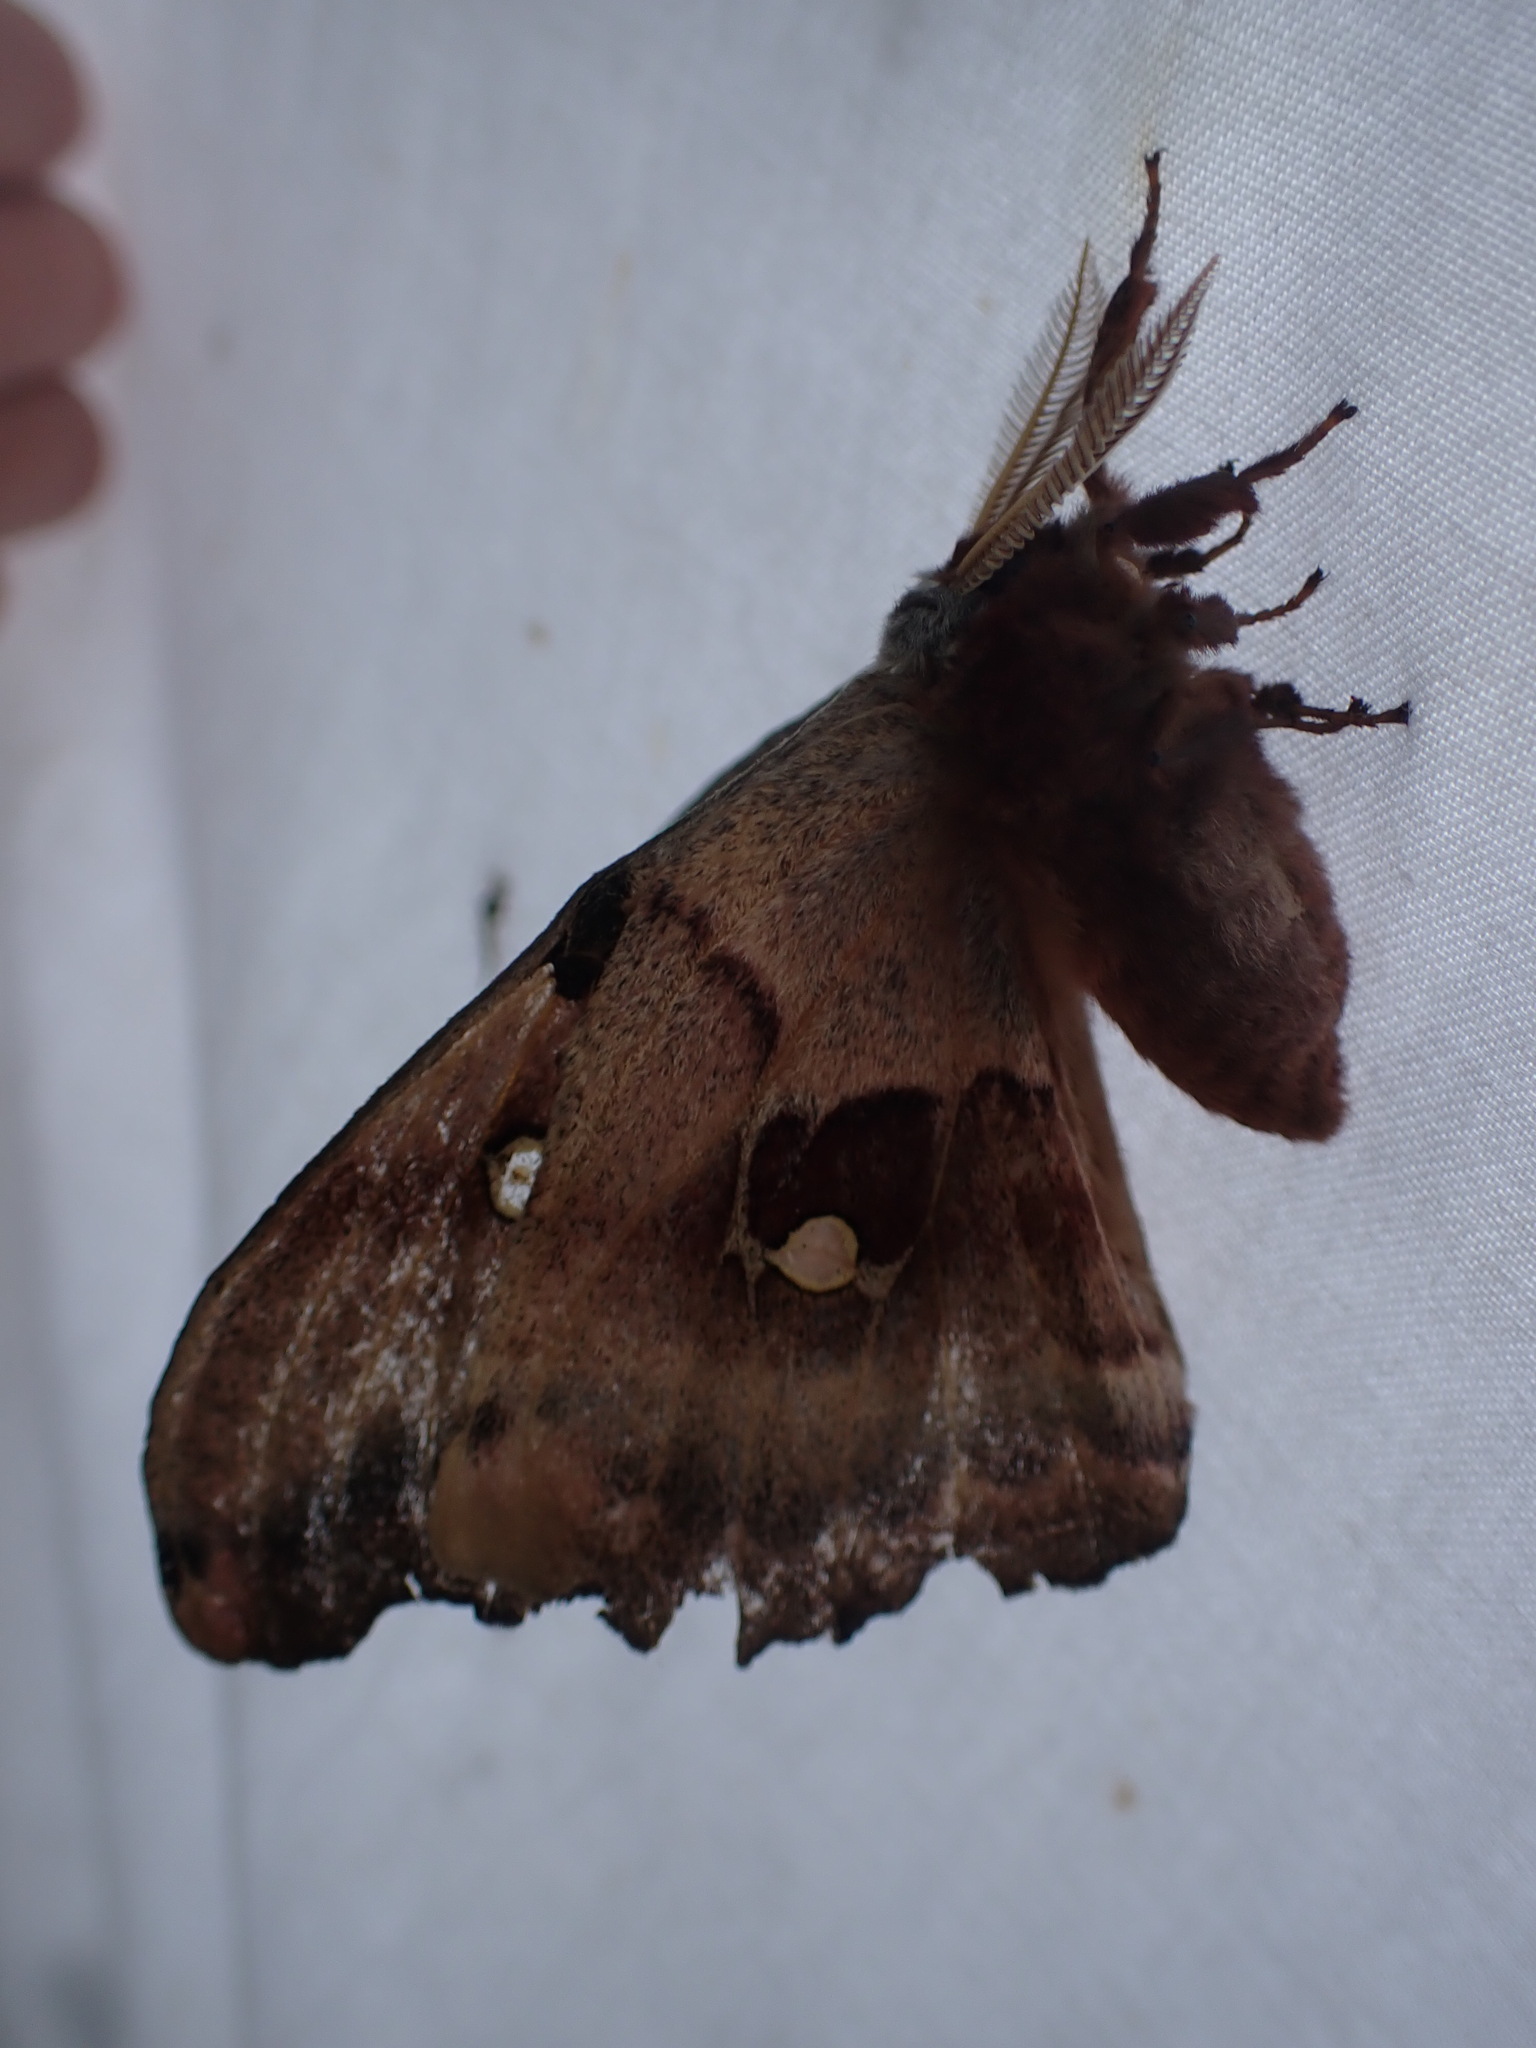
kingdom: Animalia
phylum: Arthropoda
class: Insecta
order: Lepidoptera
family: Saturniidae
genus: Antheraea
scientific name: Antheraea polyphemus
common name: Polyphemus moth
